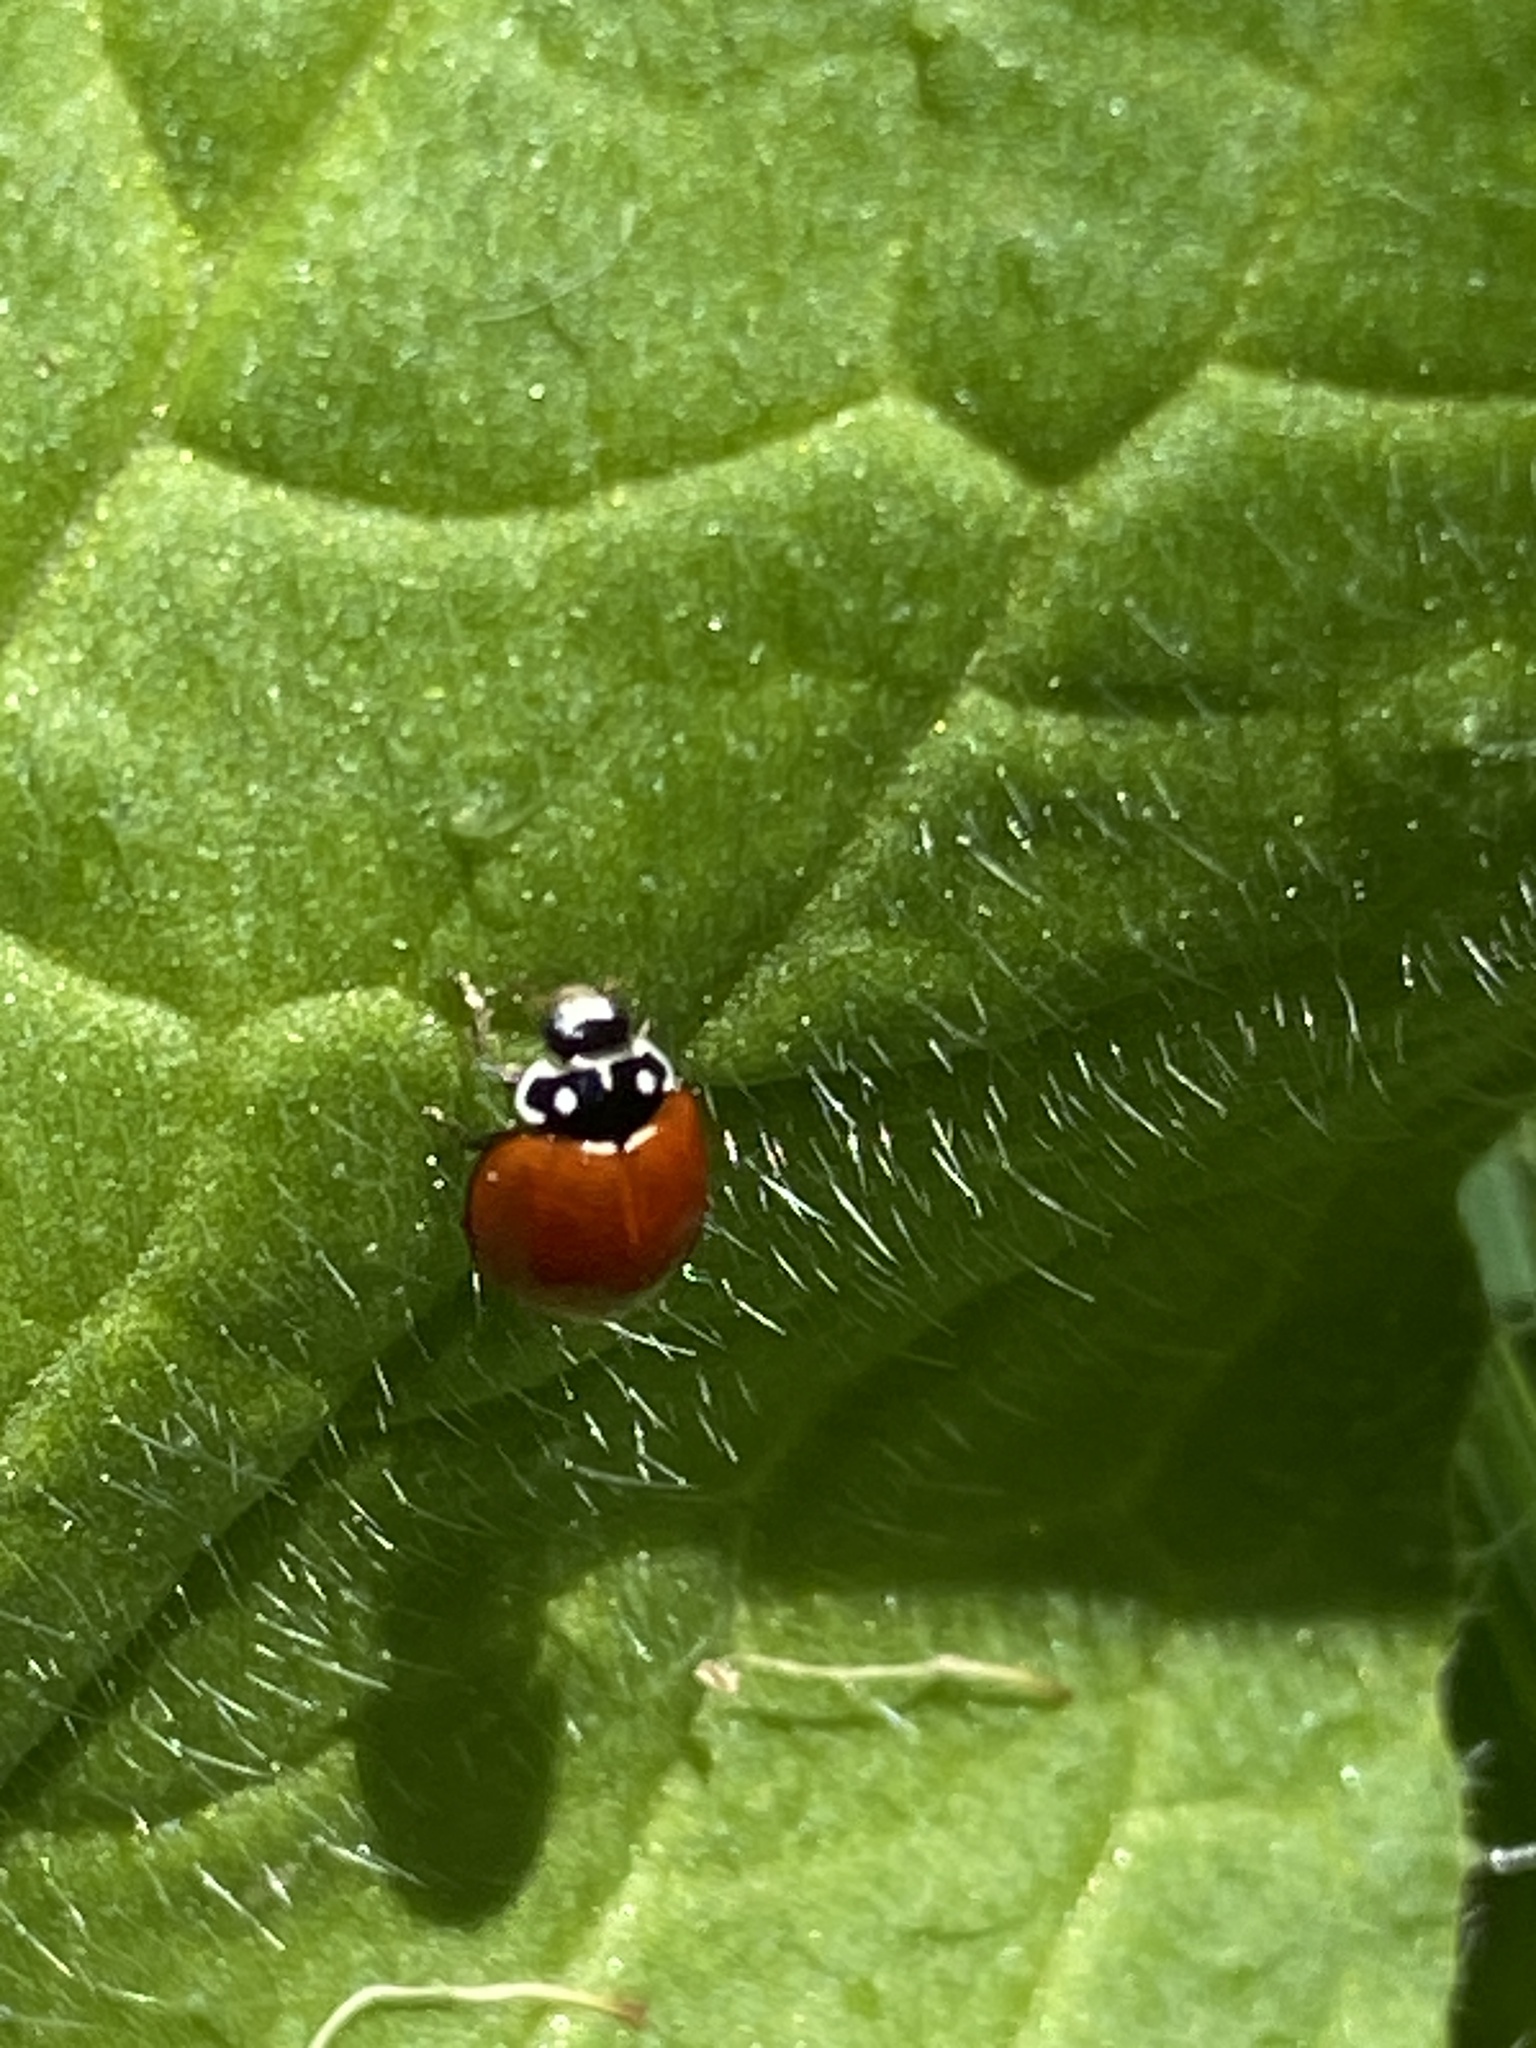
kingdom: Animalia
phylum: Arthropoda
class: Insecta
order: Coleoptera
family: Coccinellidae
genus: Cycloneda
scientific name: Cycloneda sanguinea
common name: Ladybird beetle
